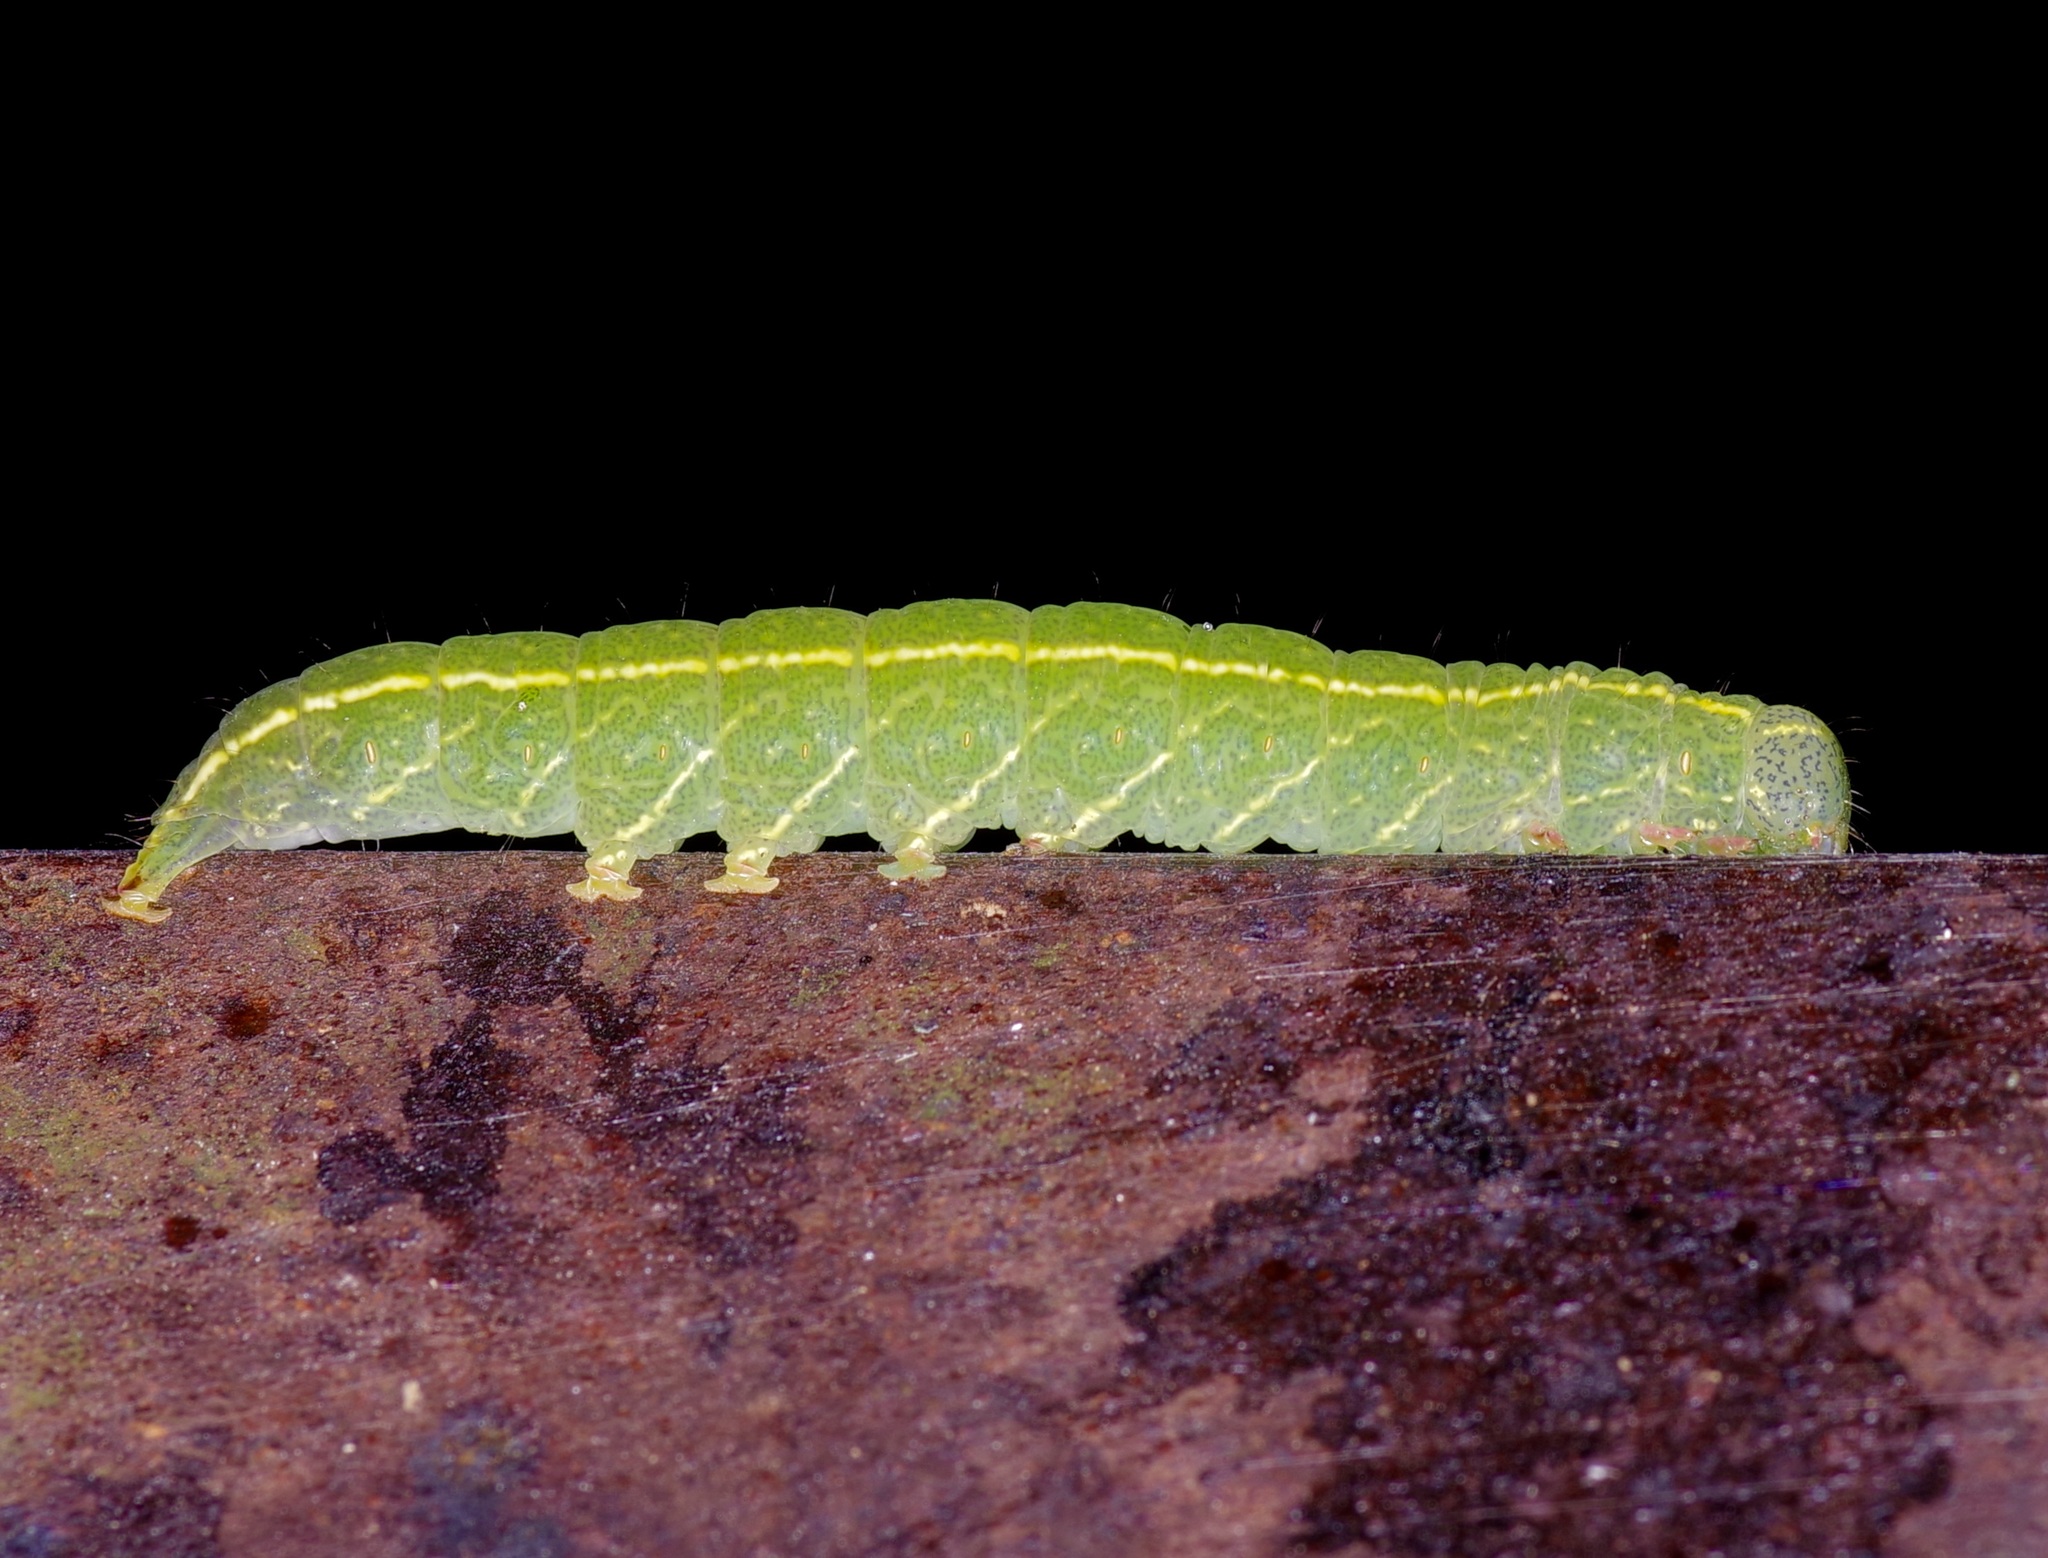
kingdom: Animalia
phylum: Arthropoda
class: Insecta
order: Lepidoptera
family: Erebidae
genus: Panopoda
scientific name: Panopoda rufimargo
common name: Red-lined panopoda moth
